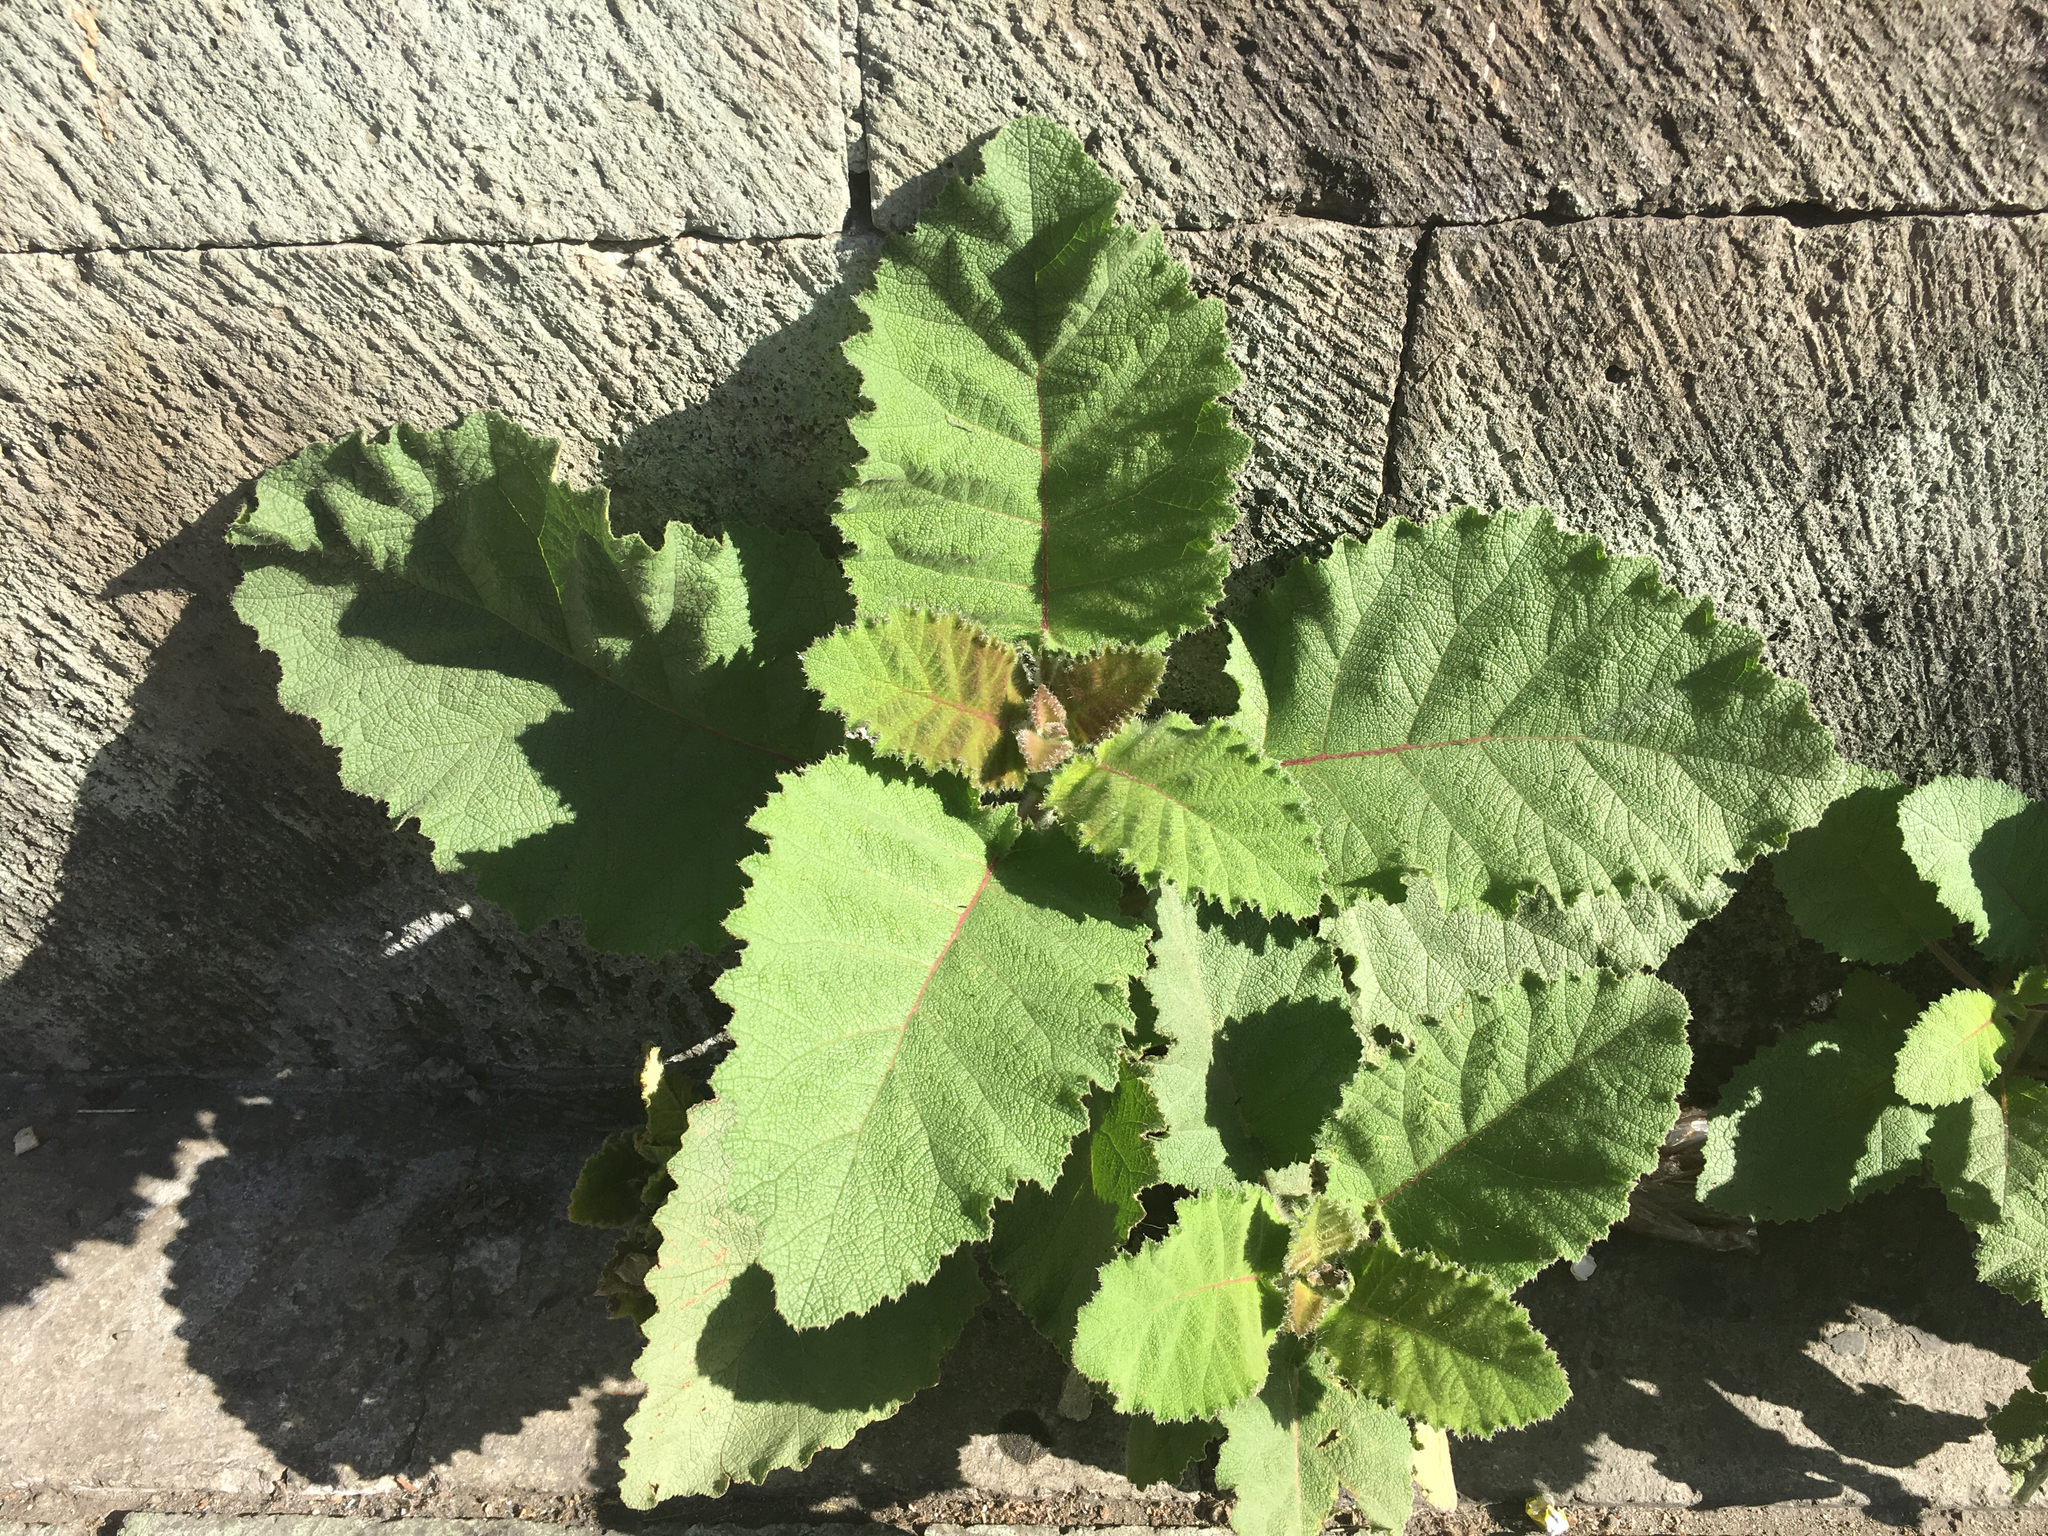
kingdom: Plantae
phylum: Tracheophyta
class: Magnoliopsida
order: Boraginales
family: Namaceae
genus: Wigandia
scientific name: Wigandia urens
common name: Caracus wigandia
